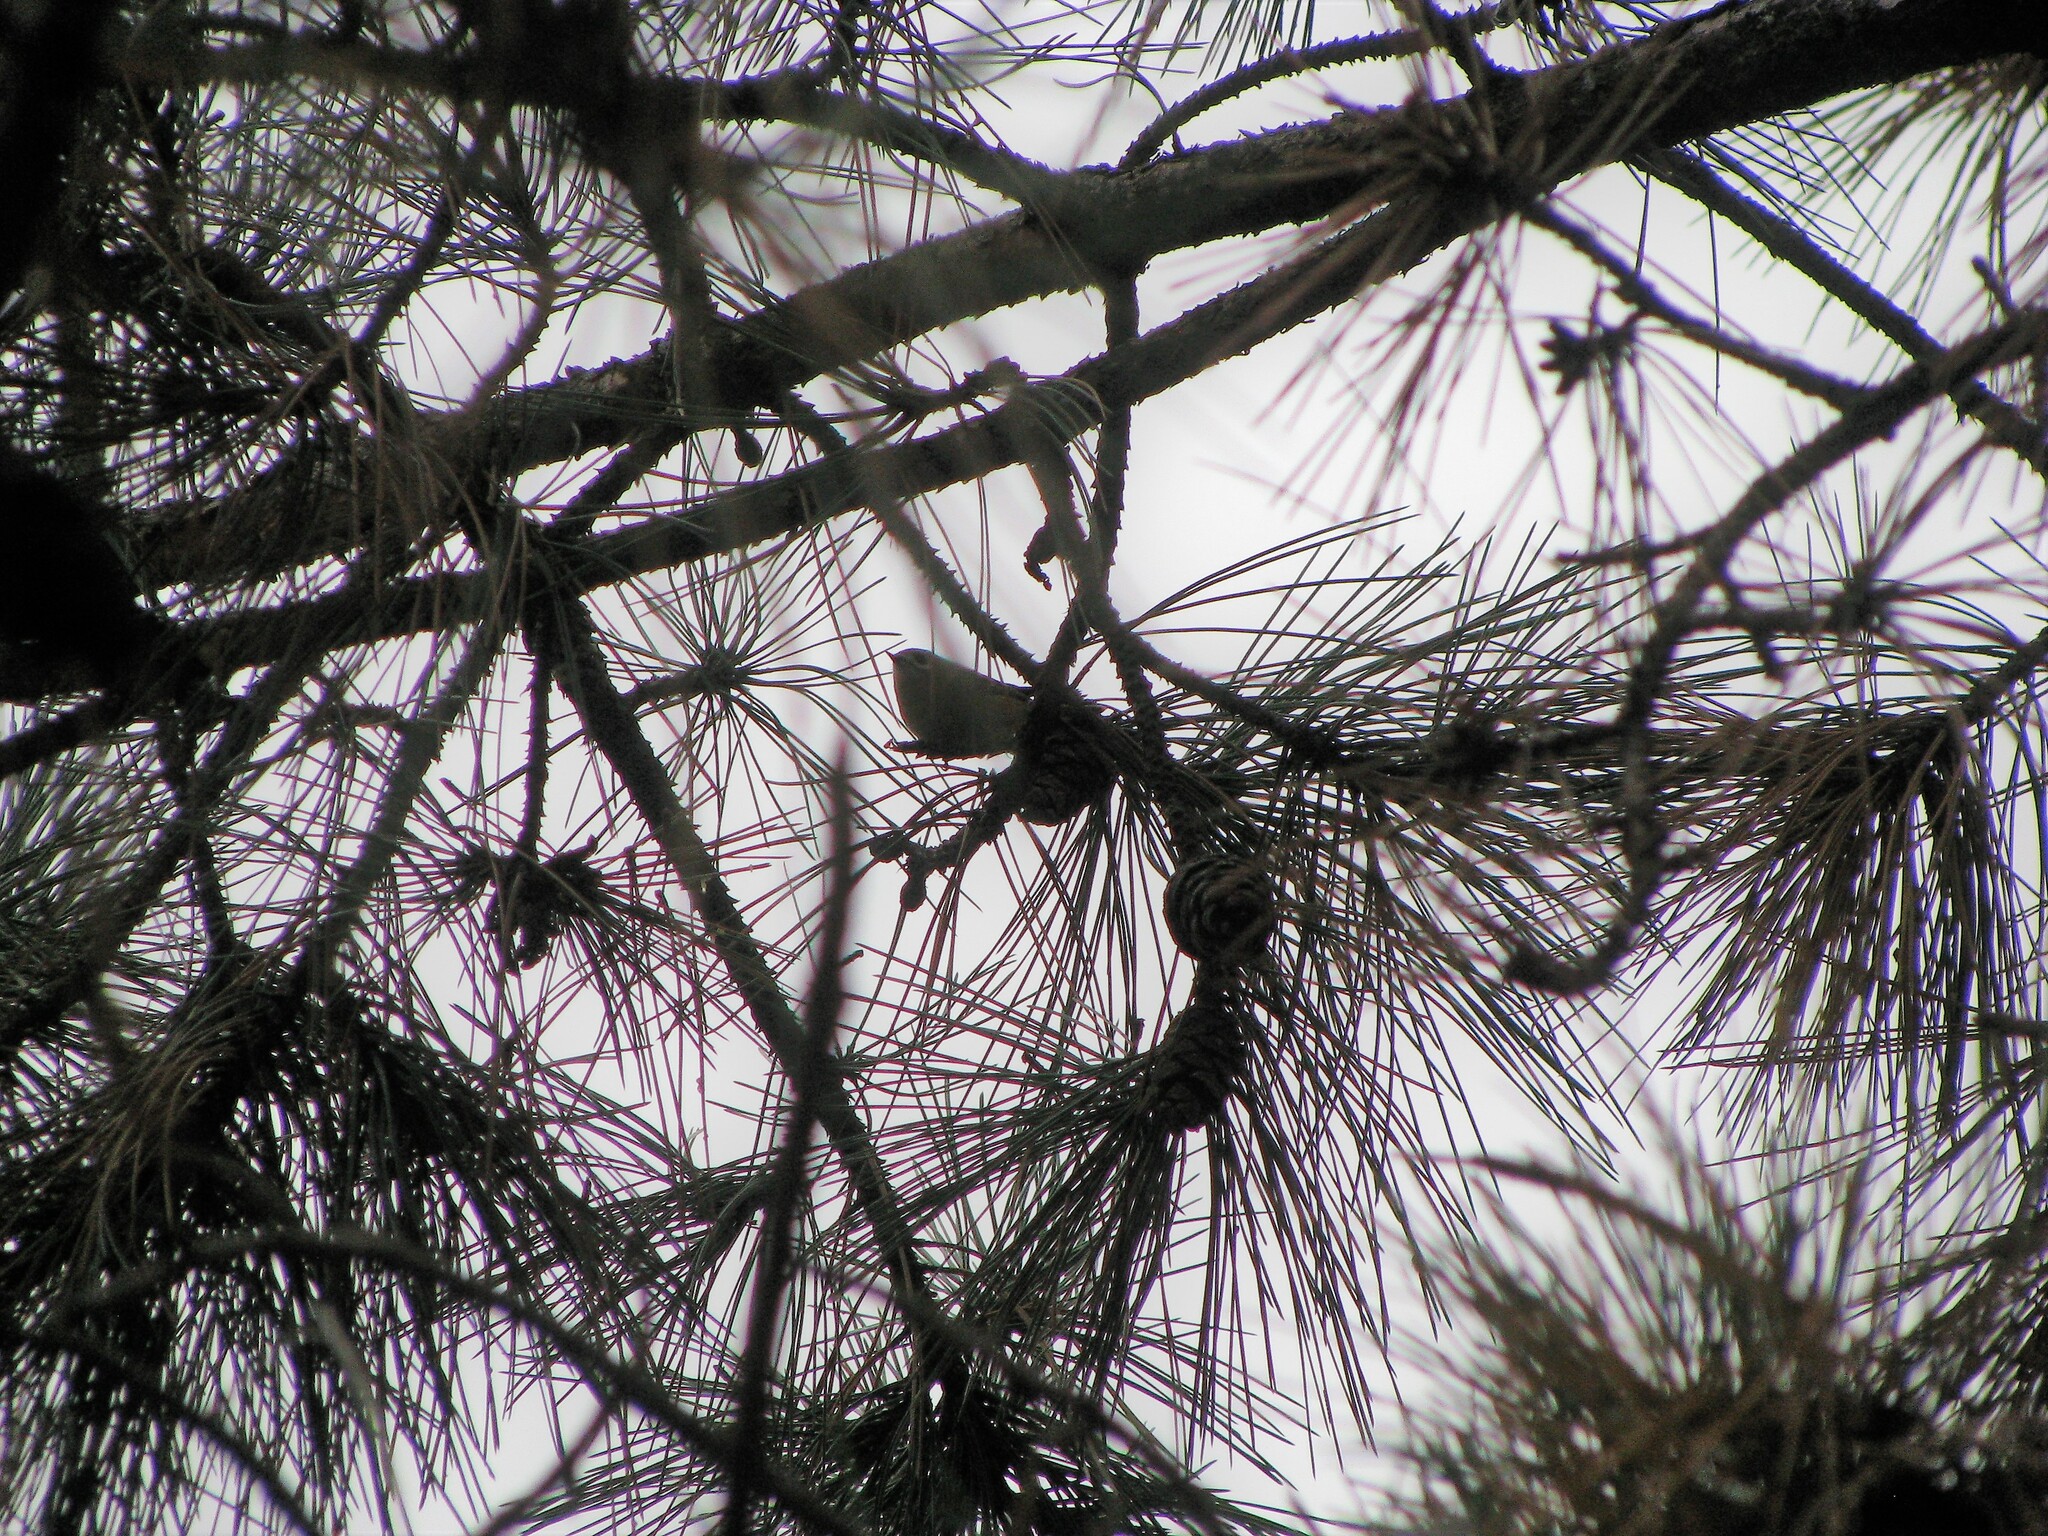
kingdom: Animalia
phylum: Chordata
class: Aves
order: Passeriformes
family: Regulidae
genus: Regulus
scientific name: Regulus regulus
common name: Goldcrest
